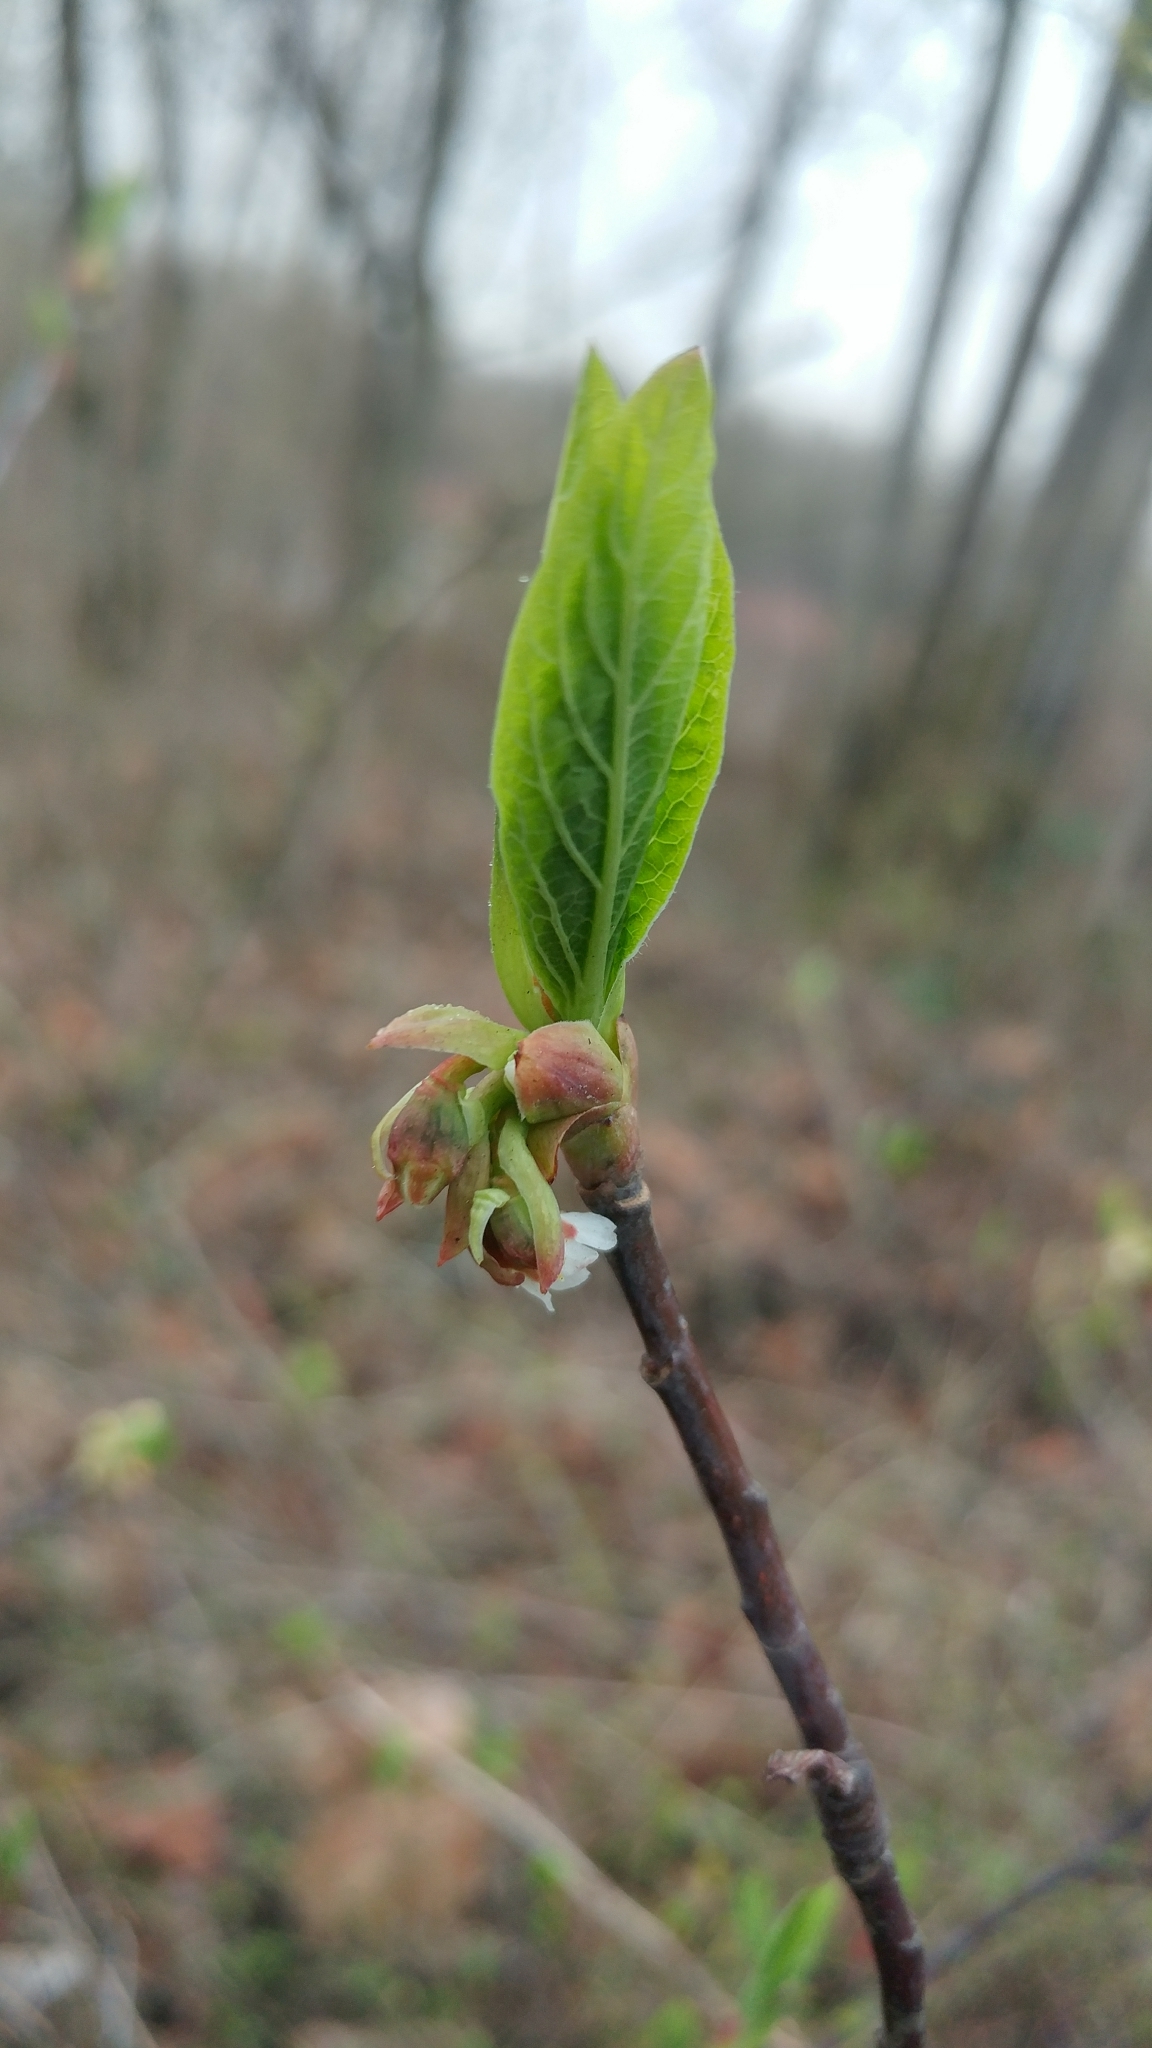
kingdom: Plantae
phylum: Tracheophyta
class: Magnoliopsida
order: Rosales
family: Rosaceae
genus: Oemleria
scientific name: Oemleria cerasiformis
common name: Osoberry
